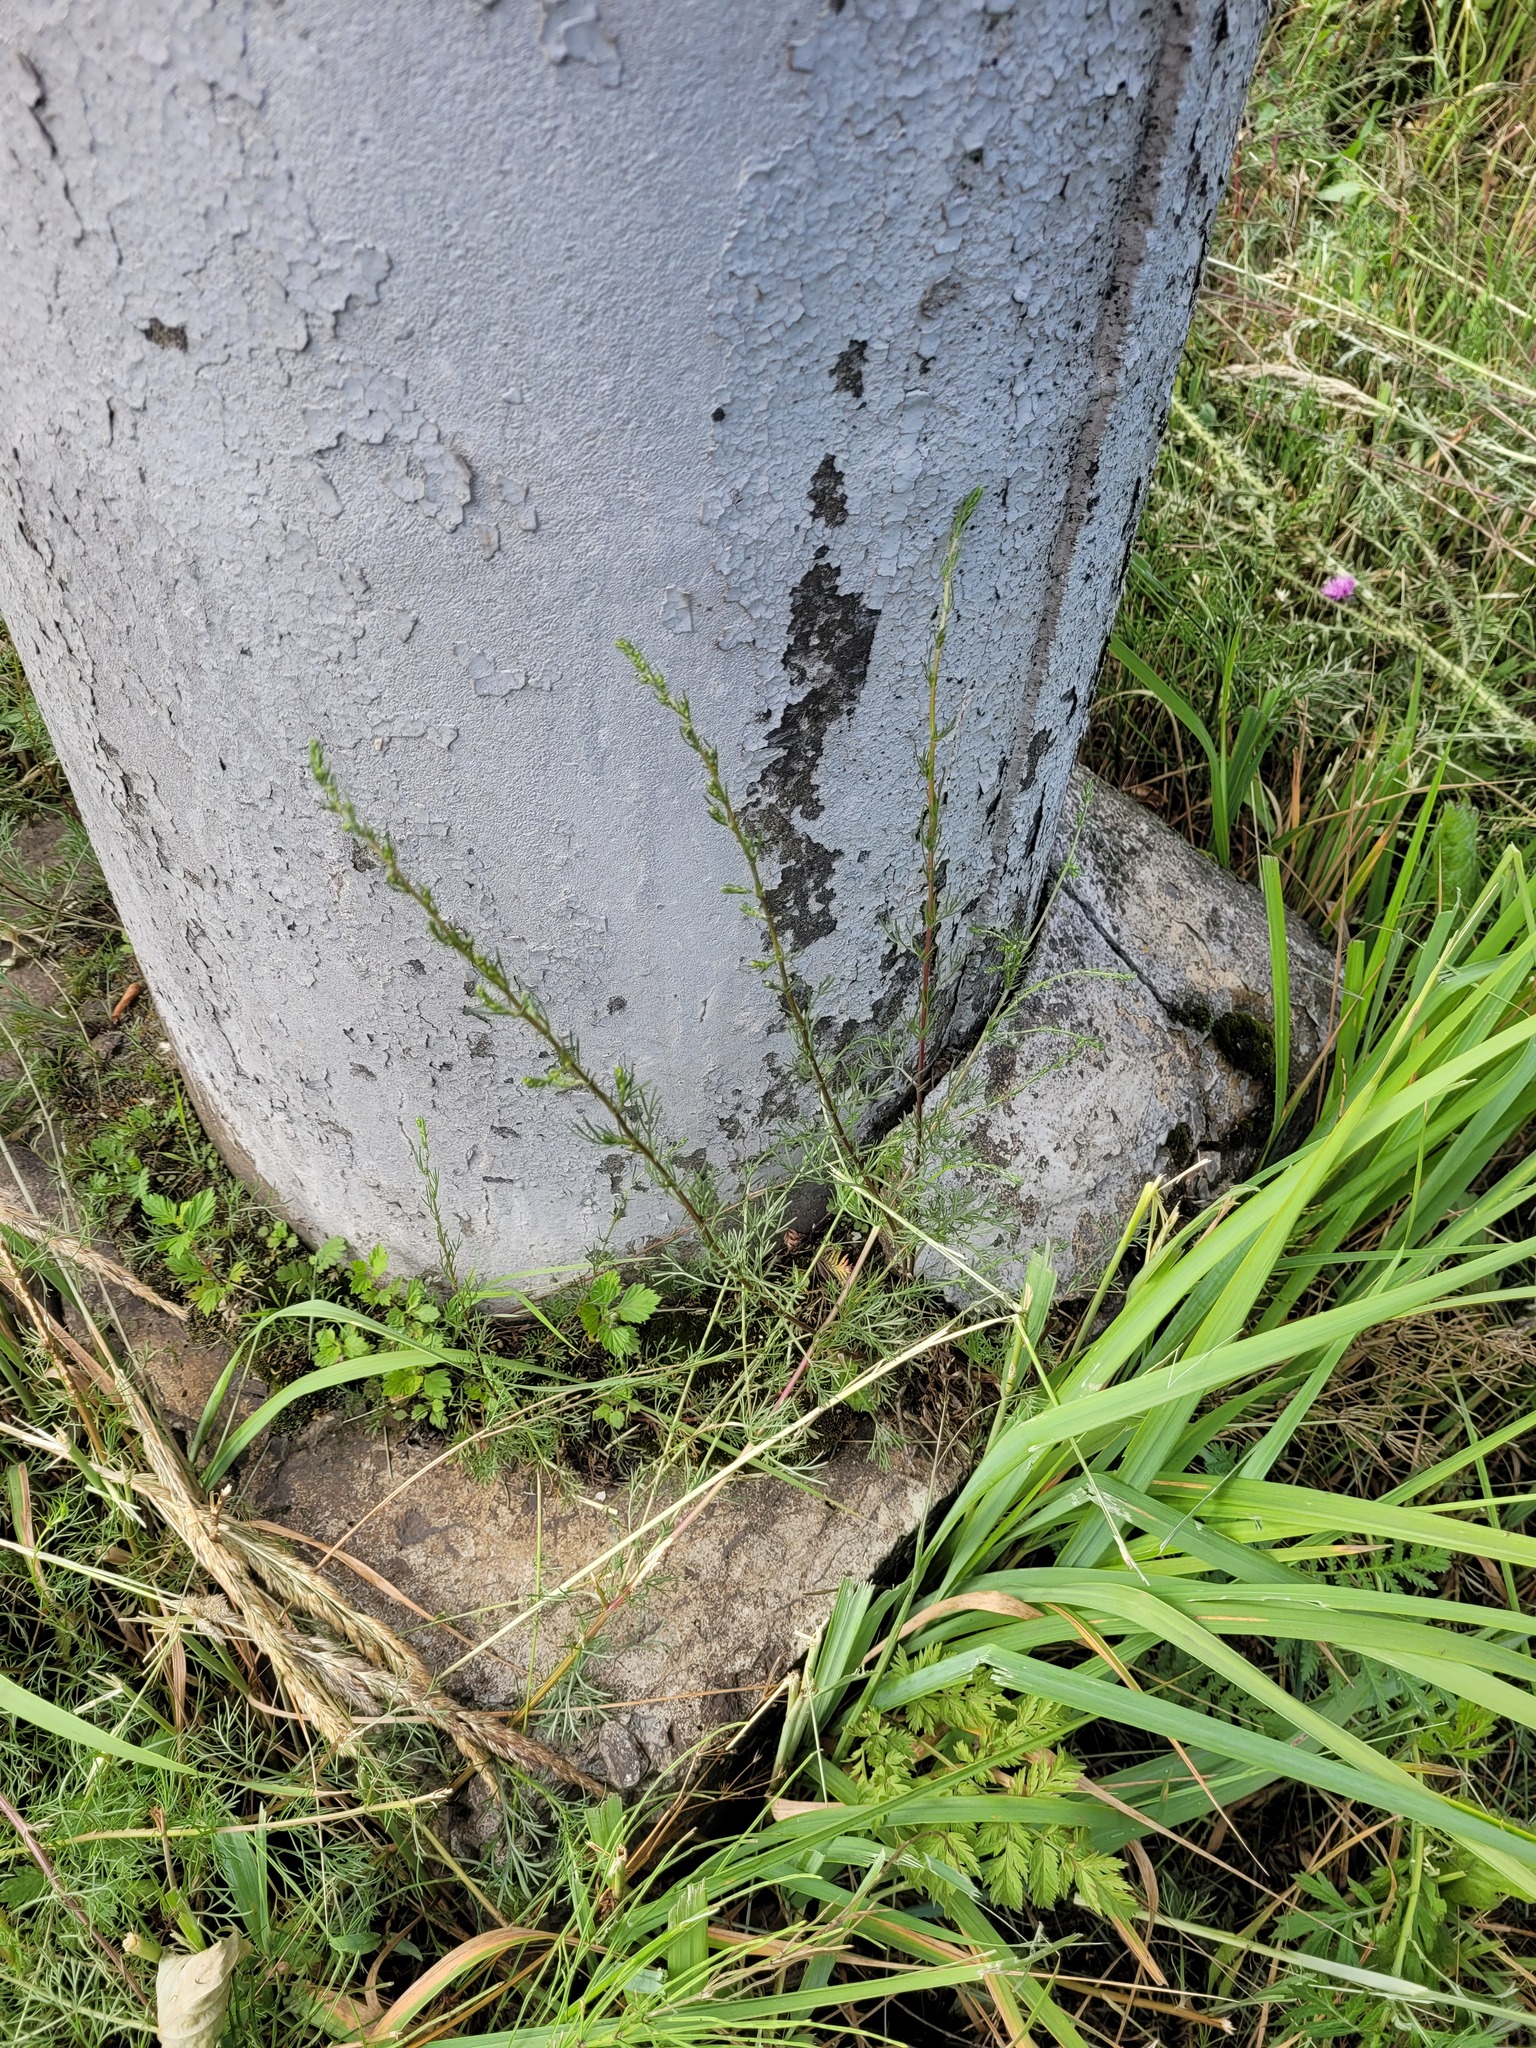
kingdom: Plantae
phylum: Tracheophyta
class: Magnoliopsida
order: Asterales
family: Asteraceae
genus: Artemisia
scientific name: Artemisia campestris
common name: Field wormwood
